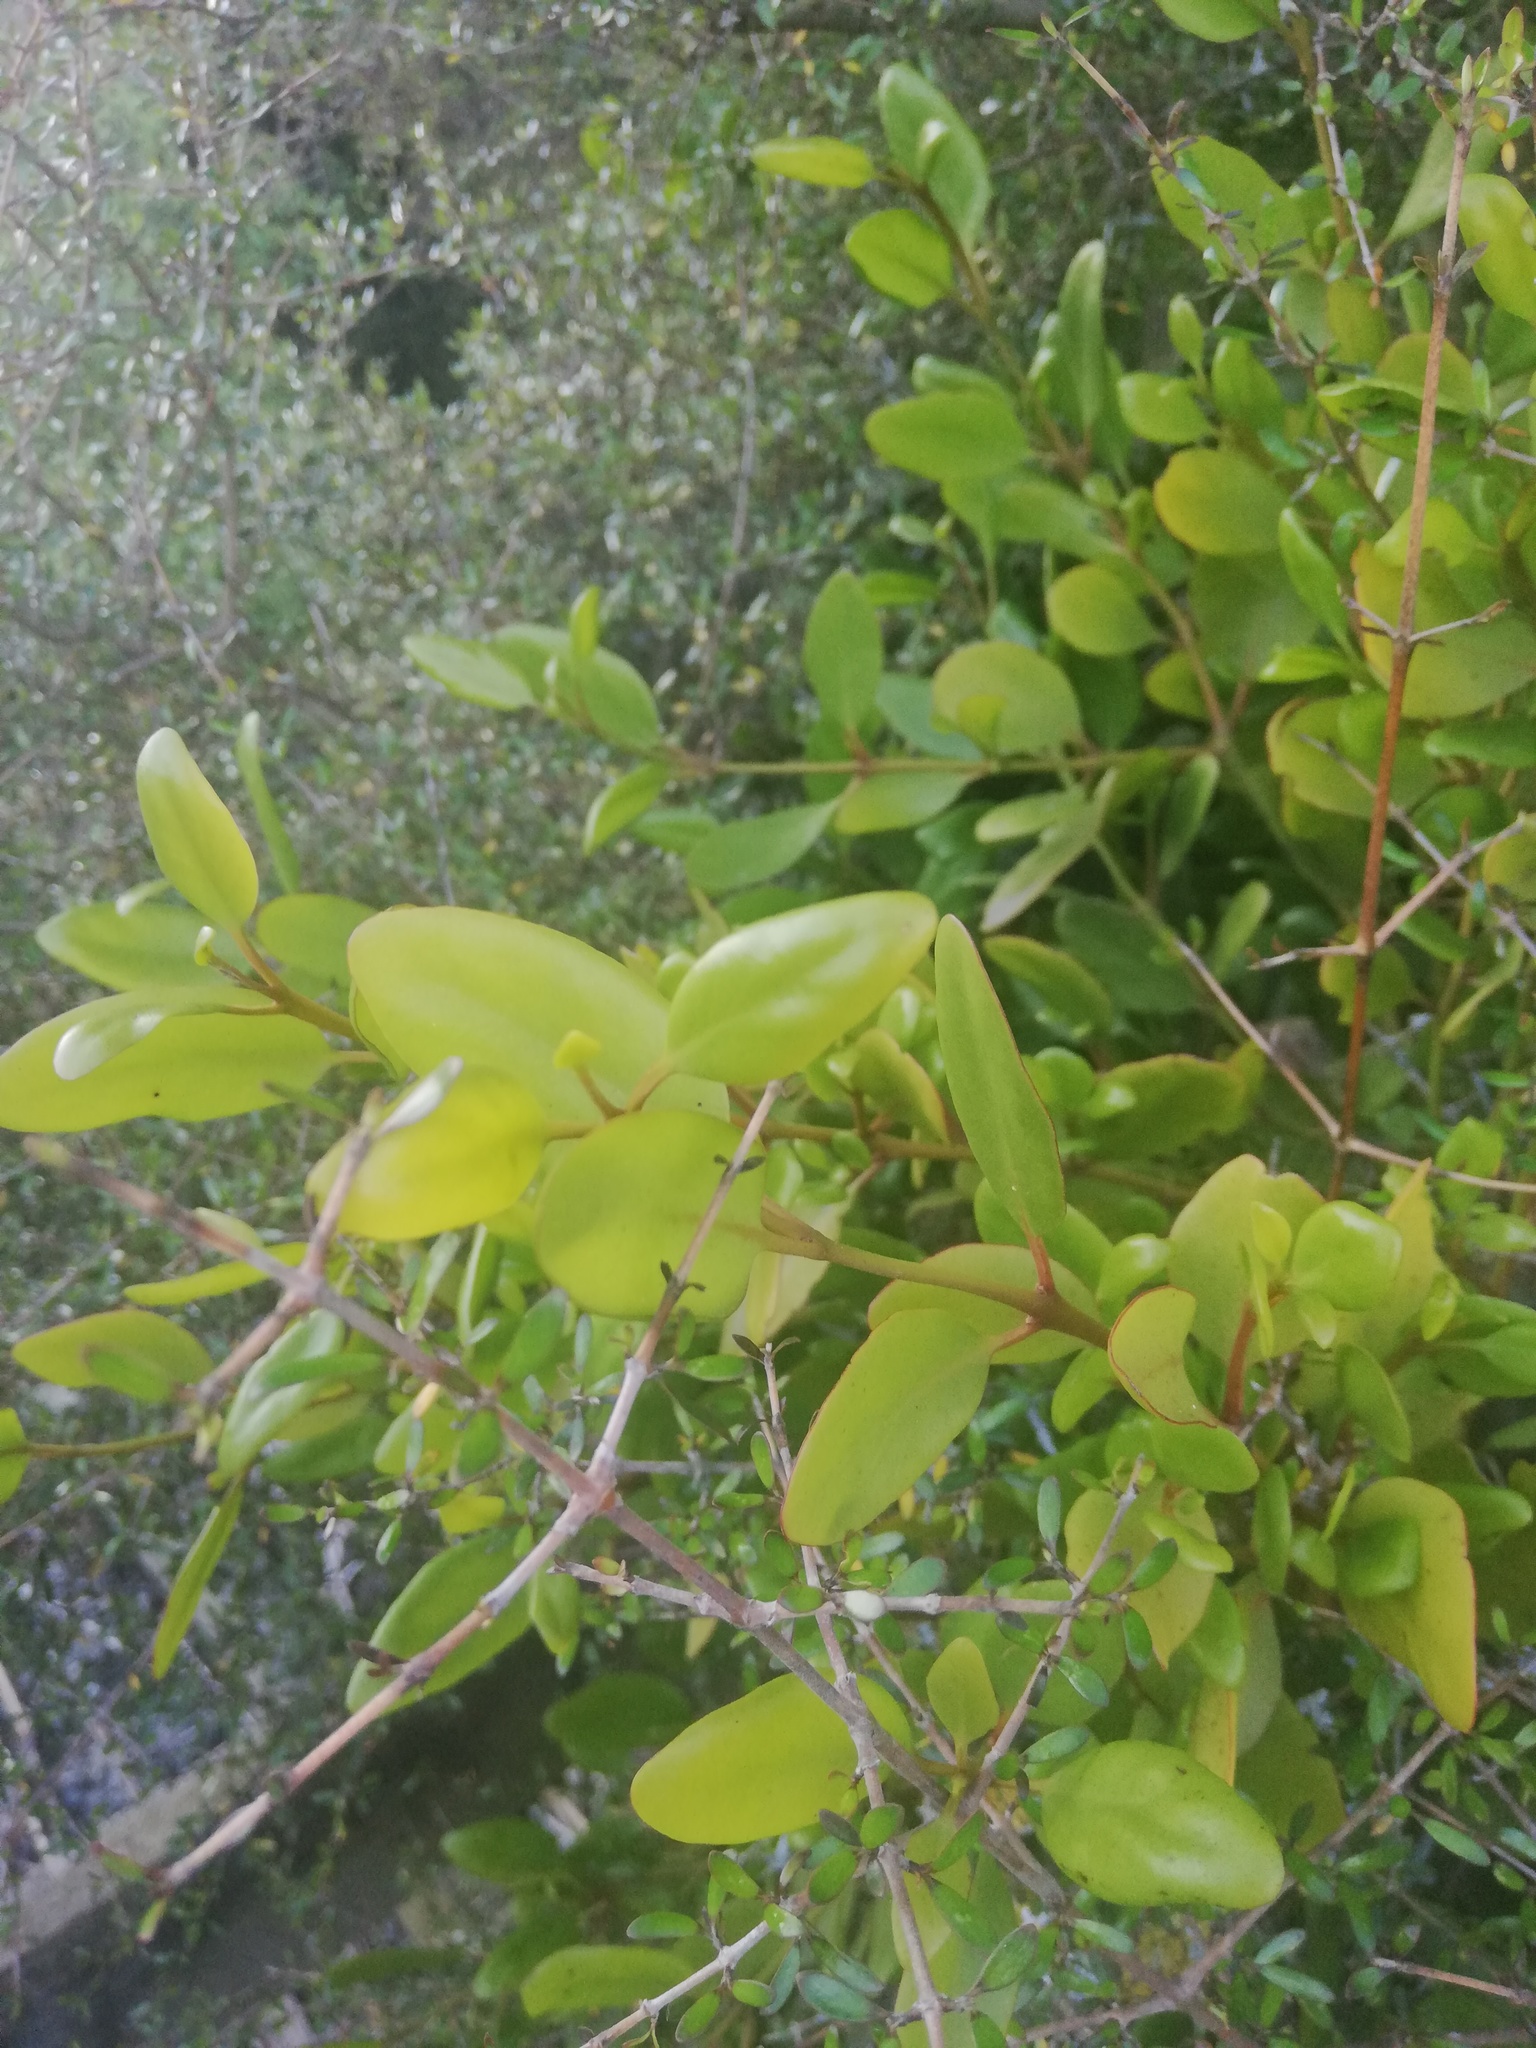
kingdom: Plantae
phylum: Tracheophyta
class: Magnoliopsida
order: Santalales
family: Loranthaceae
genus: Ileostylus
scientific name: Ileostylus micranthus
